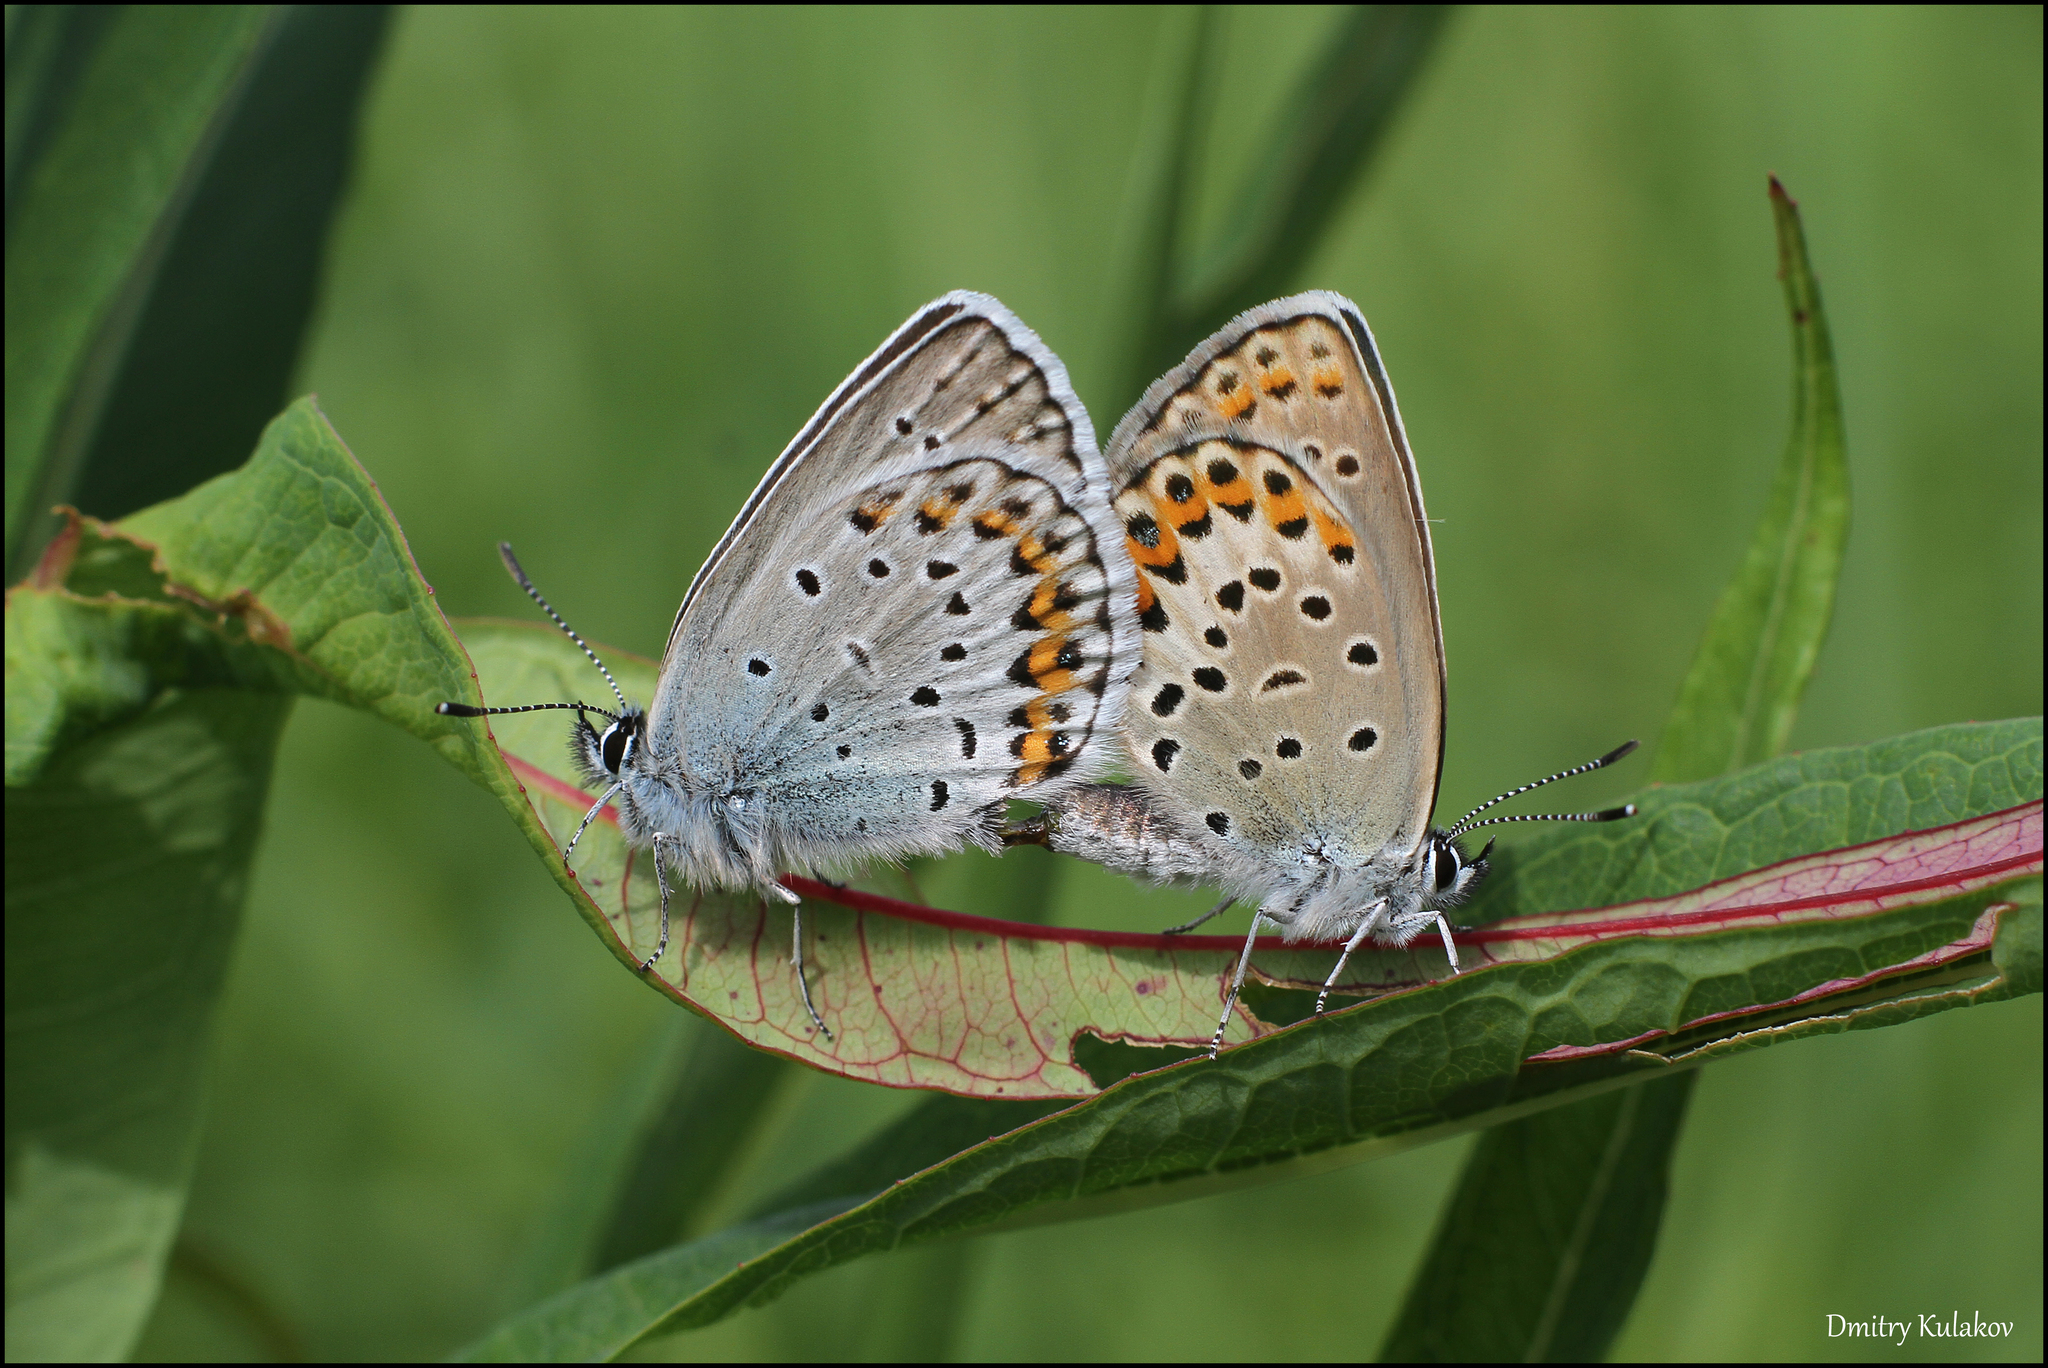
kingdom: Animalia
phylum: Arthropoda
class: Insecta
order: Lepidoptera
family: Lycaenidae
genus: Plebejus
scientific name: Plebejus argus
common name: Silver-studded blue
